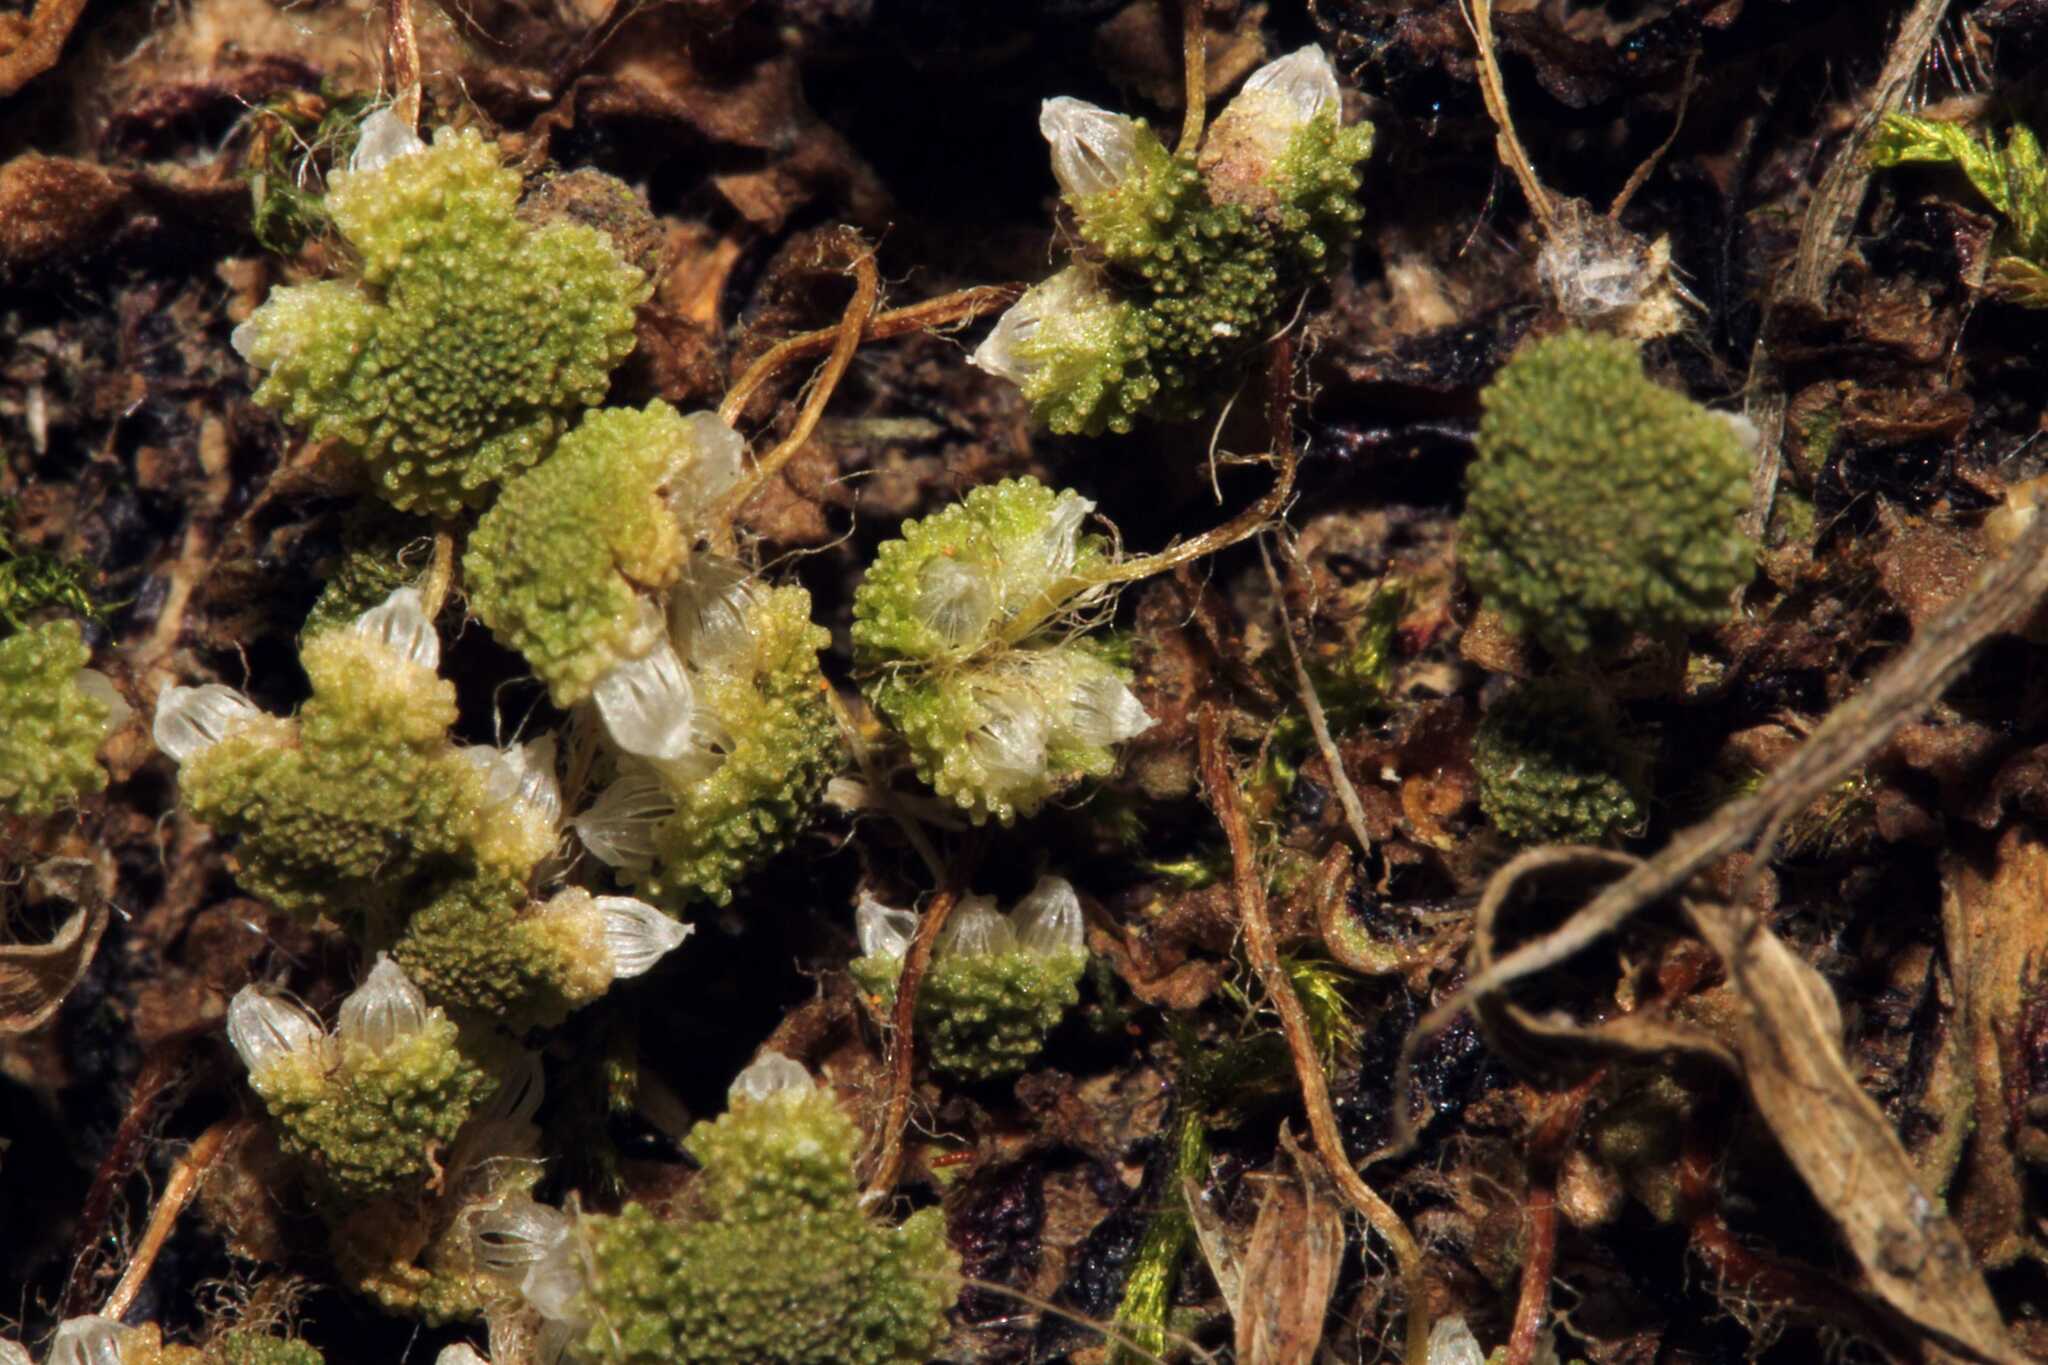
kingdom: Plantae
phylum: Marchantiophyta
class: Marchantiopsida
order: Marchantiales
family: Aytoniaceae
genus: Asterella
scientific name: Asterella lateralis
